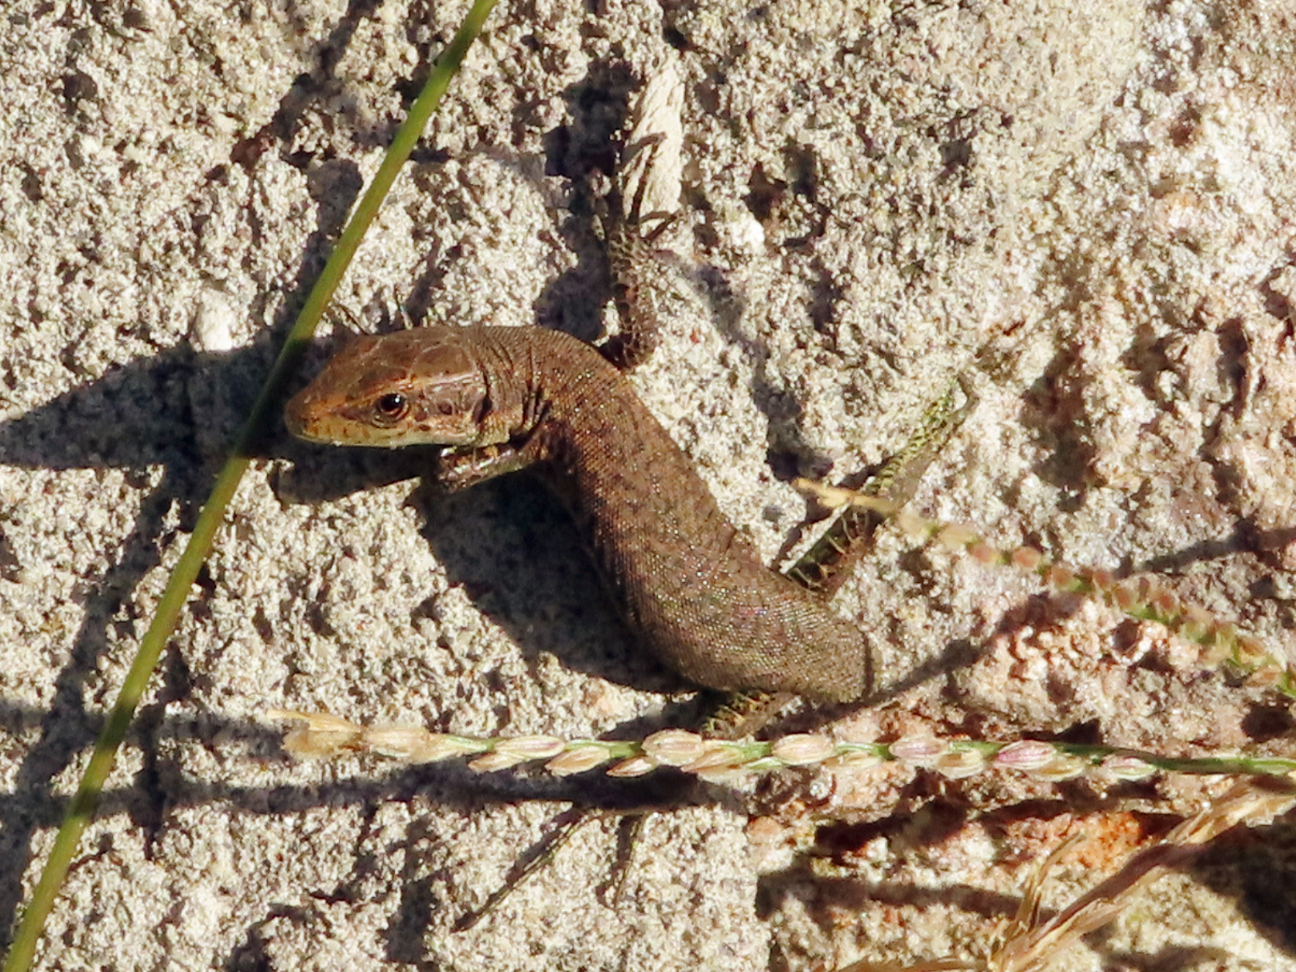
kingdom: Animalia
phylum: Chordata
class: Squamata
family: Lacertidae
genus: Darevskia
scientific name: Darevskia rudis
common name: Spiny-tailed lizard
